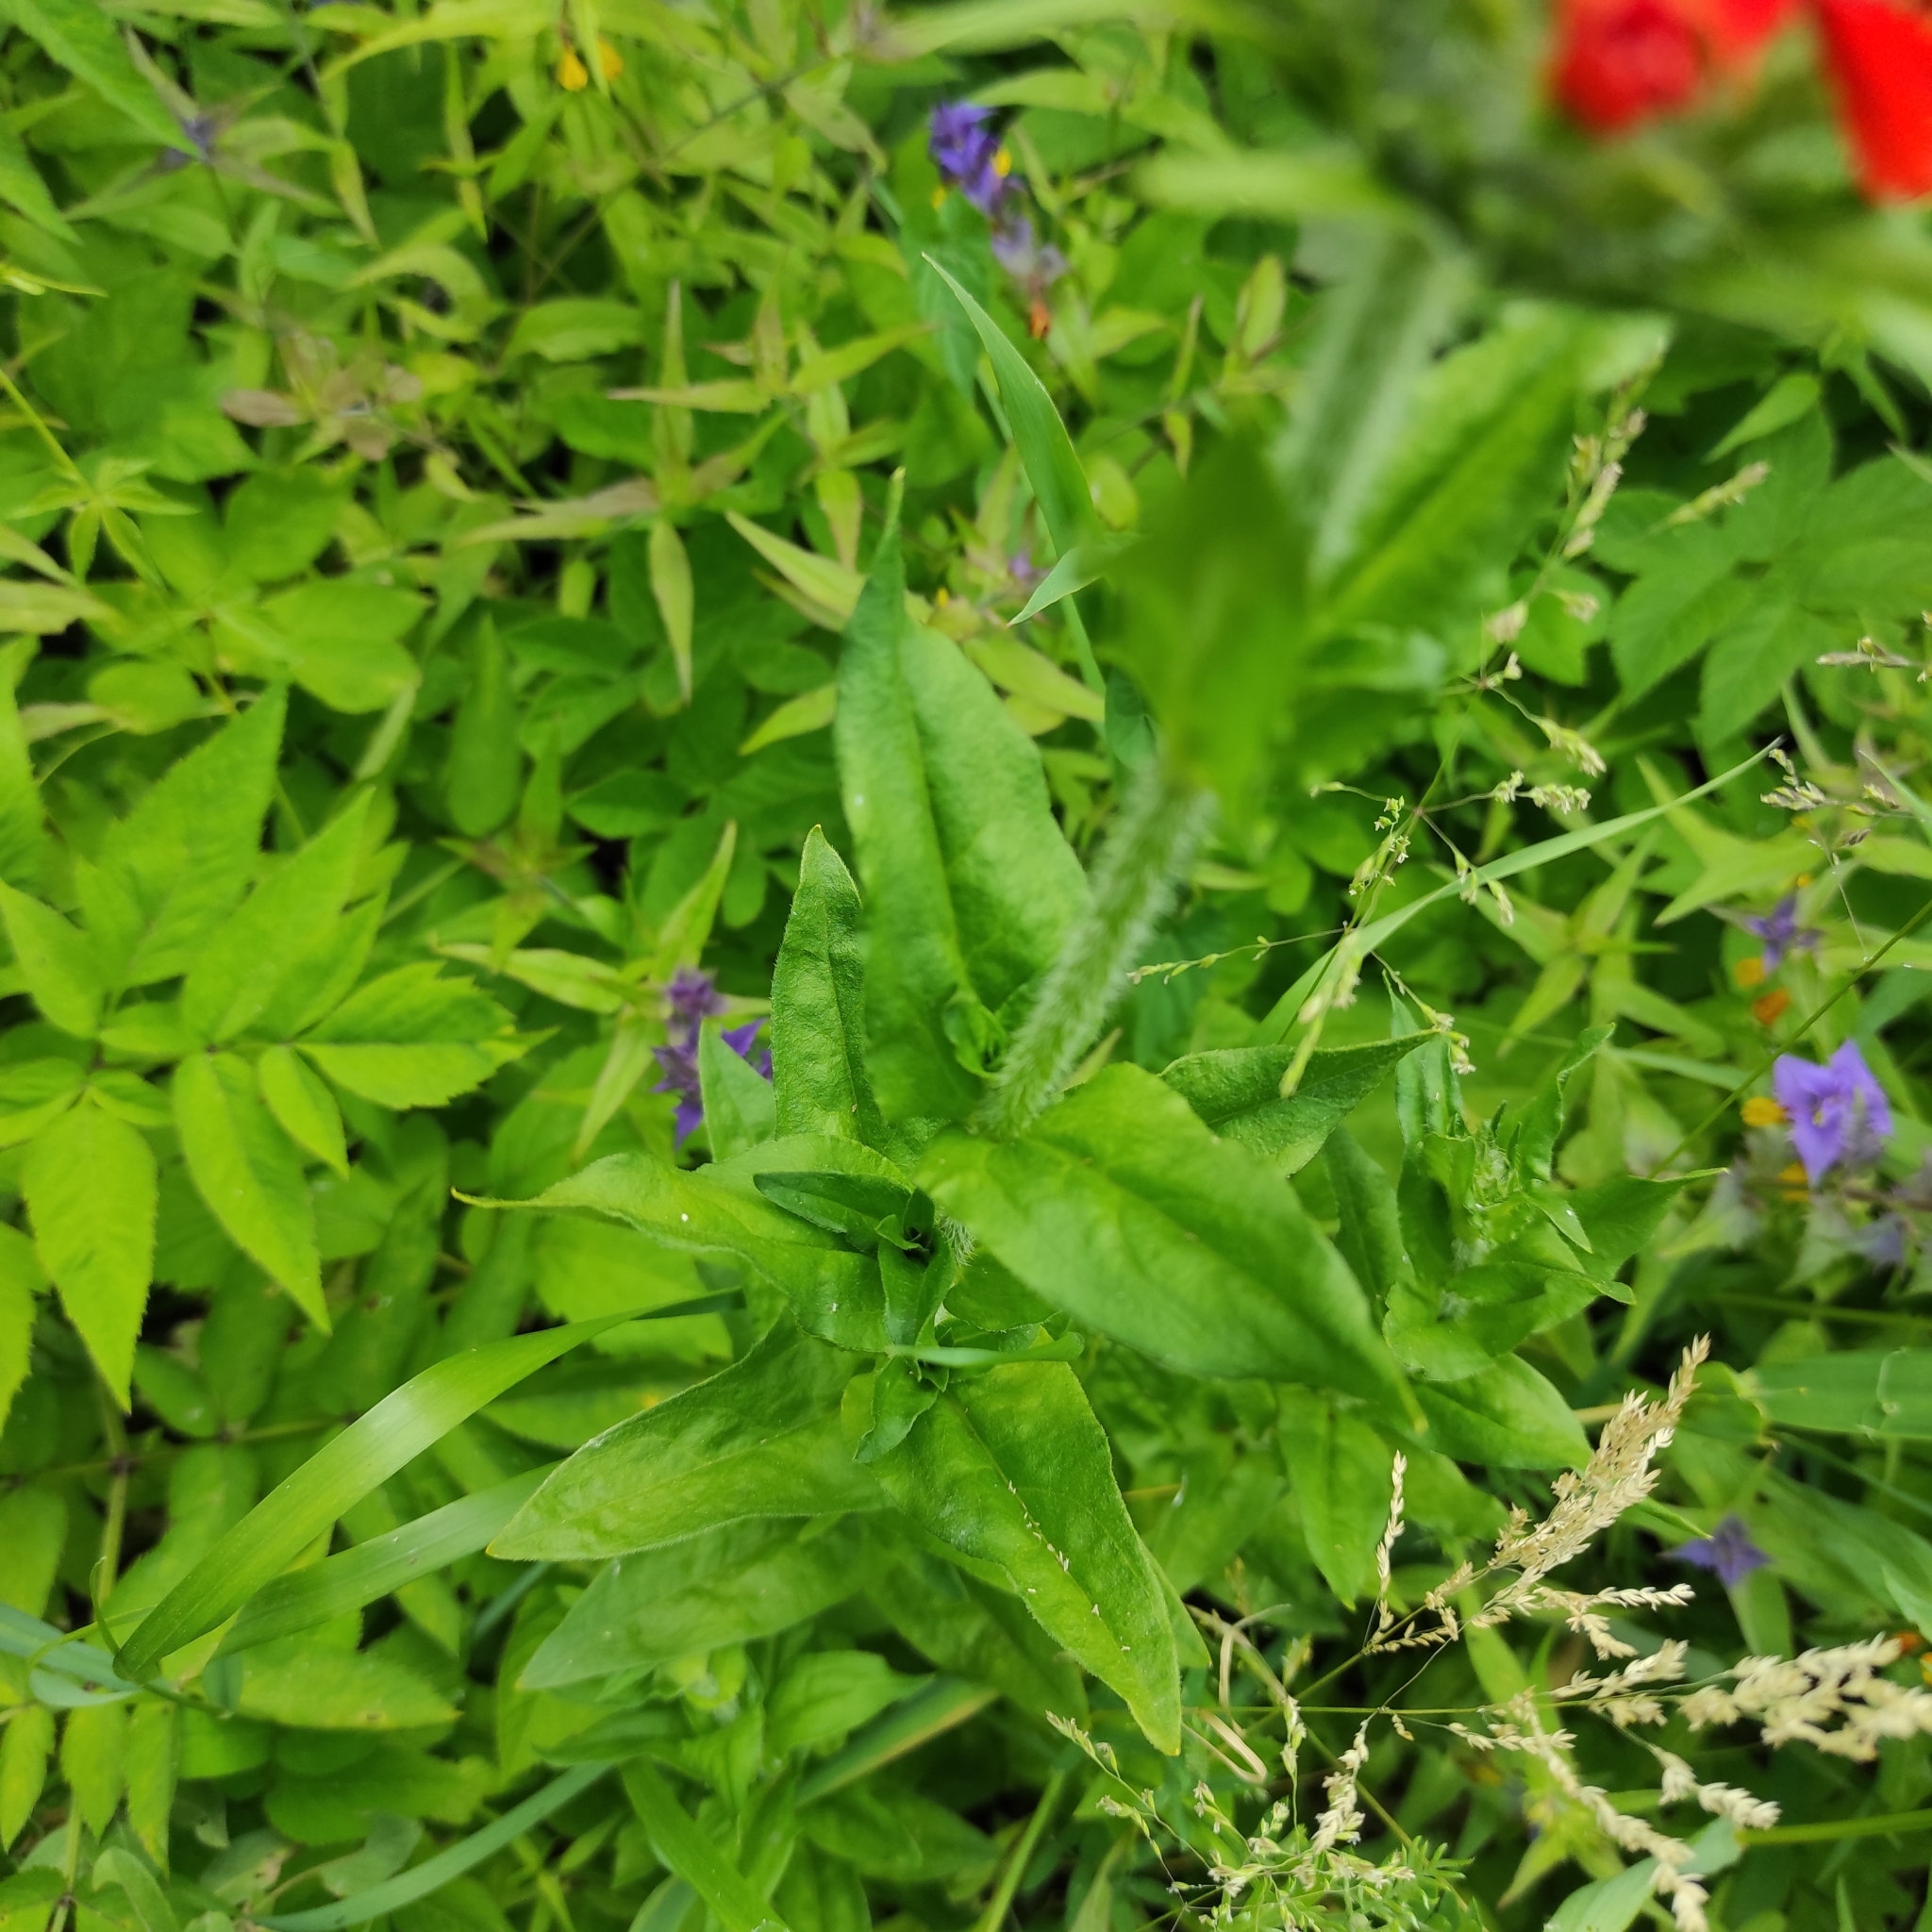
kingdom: Plantae
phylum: Tracheophyta
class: Magnoliopsida
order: Caryophyllales
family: Caryophyllaceae
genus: Silene
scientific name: Silene chalcedonica
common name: Maltese-cross
